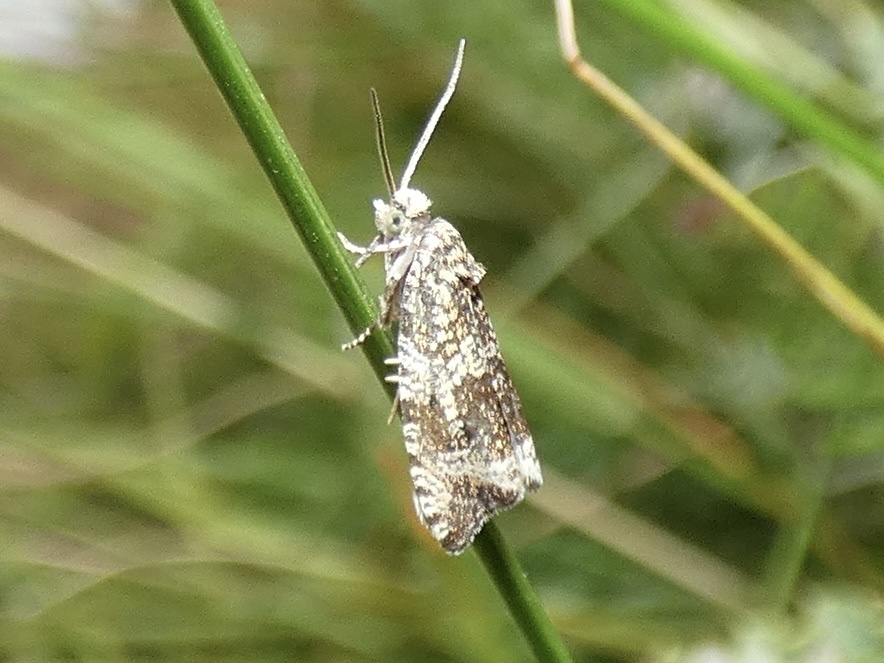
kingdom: Animalia
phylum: Arthropoda
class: Insecta
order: Lepidoptera
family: Tortricidae
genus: Syricoris
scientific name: Syricoris lacunana
